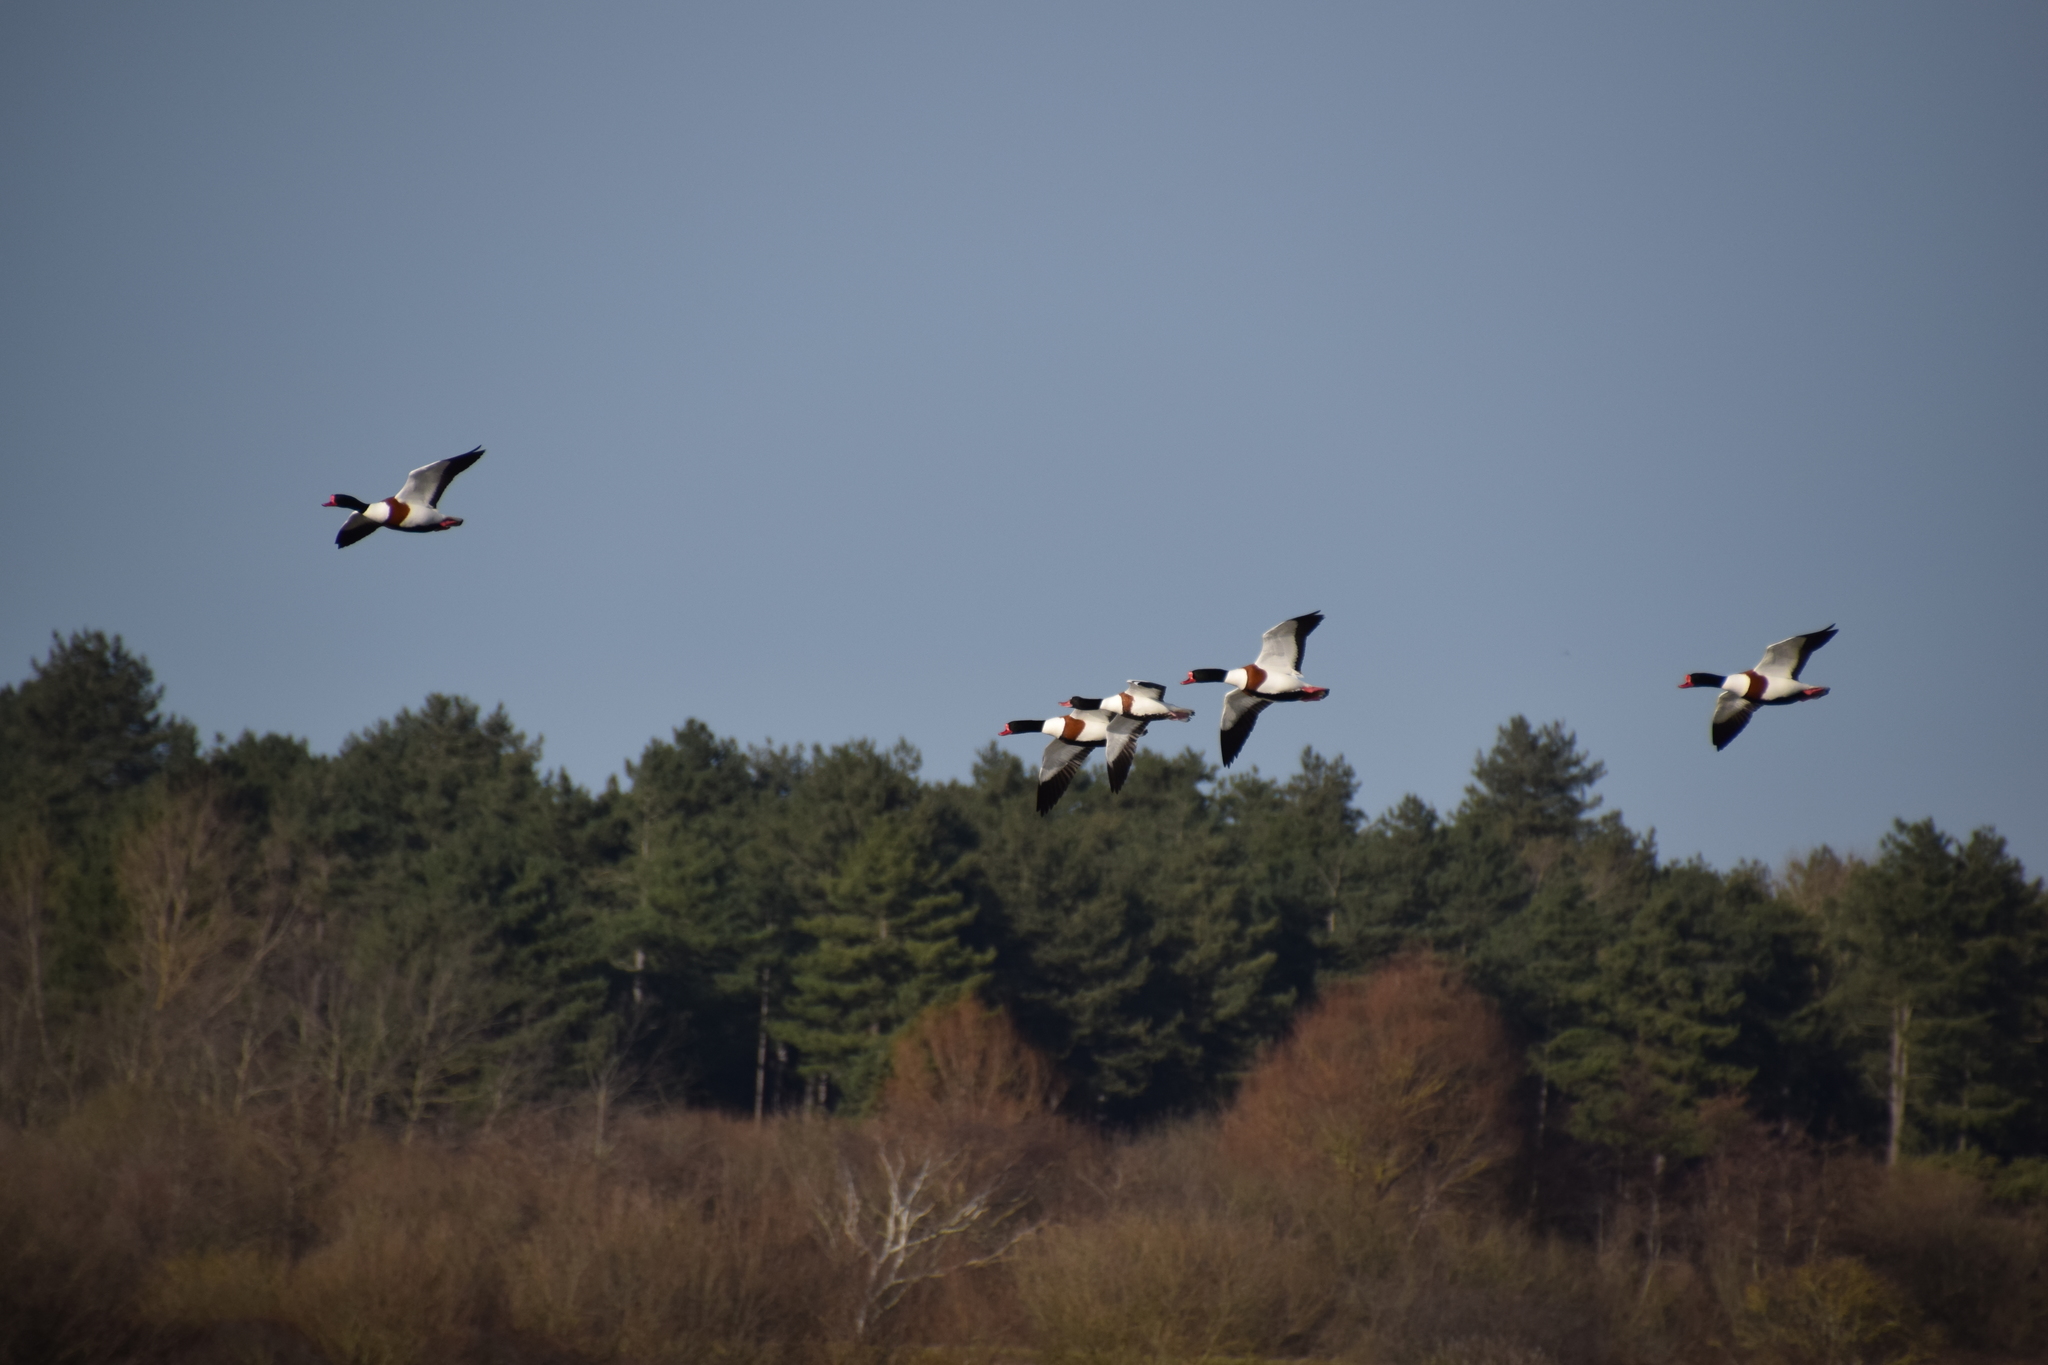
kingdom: Animalia
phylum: Chordata
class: Aves
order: Anseriformes
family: Anatidae
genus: Tadorna
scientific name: Tadorna tadorna
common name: Common shelduck
